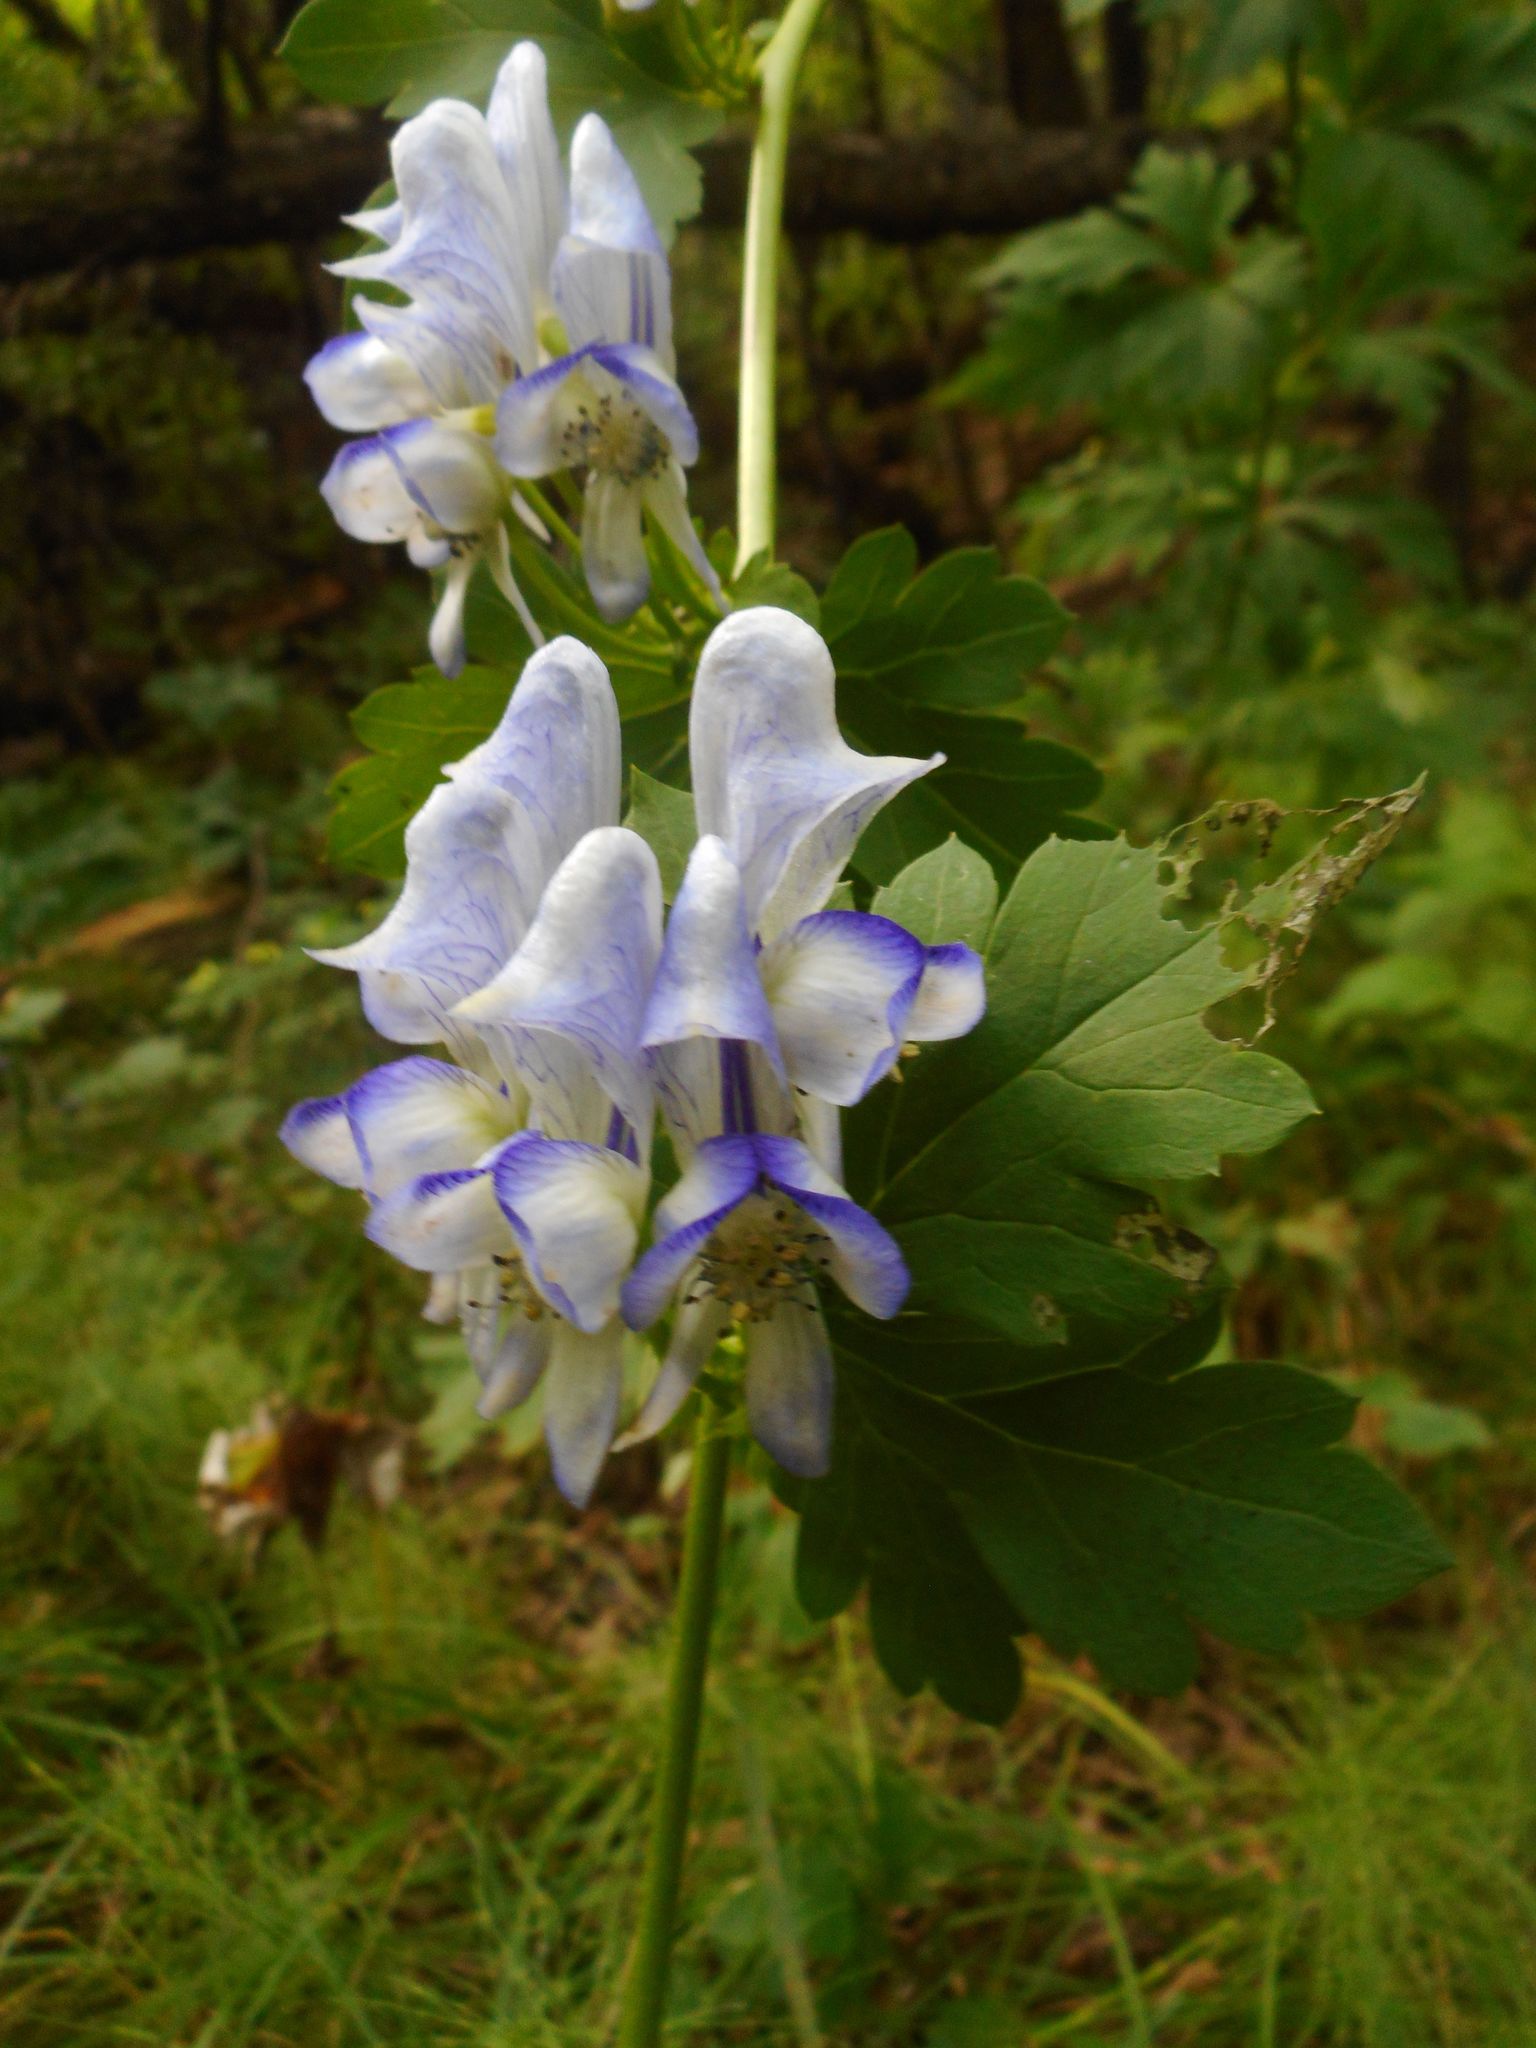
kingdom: Plantae
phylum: Tracheophyta
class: Magnoliopsida
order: Ranunculales
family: Ranunculaceae
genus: Aconitum
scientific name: Aconitum sczukinii
